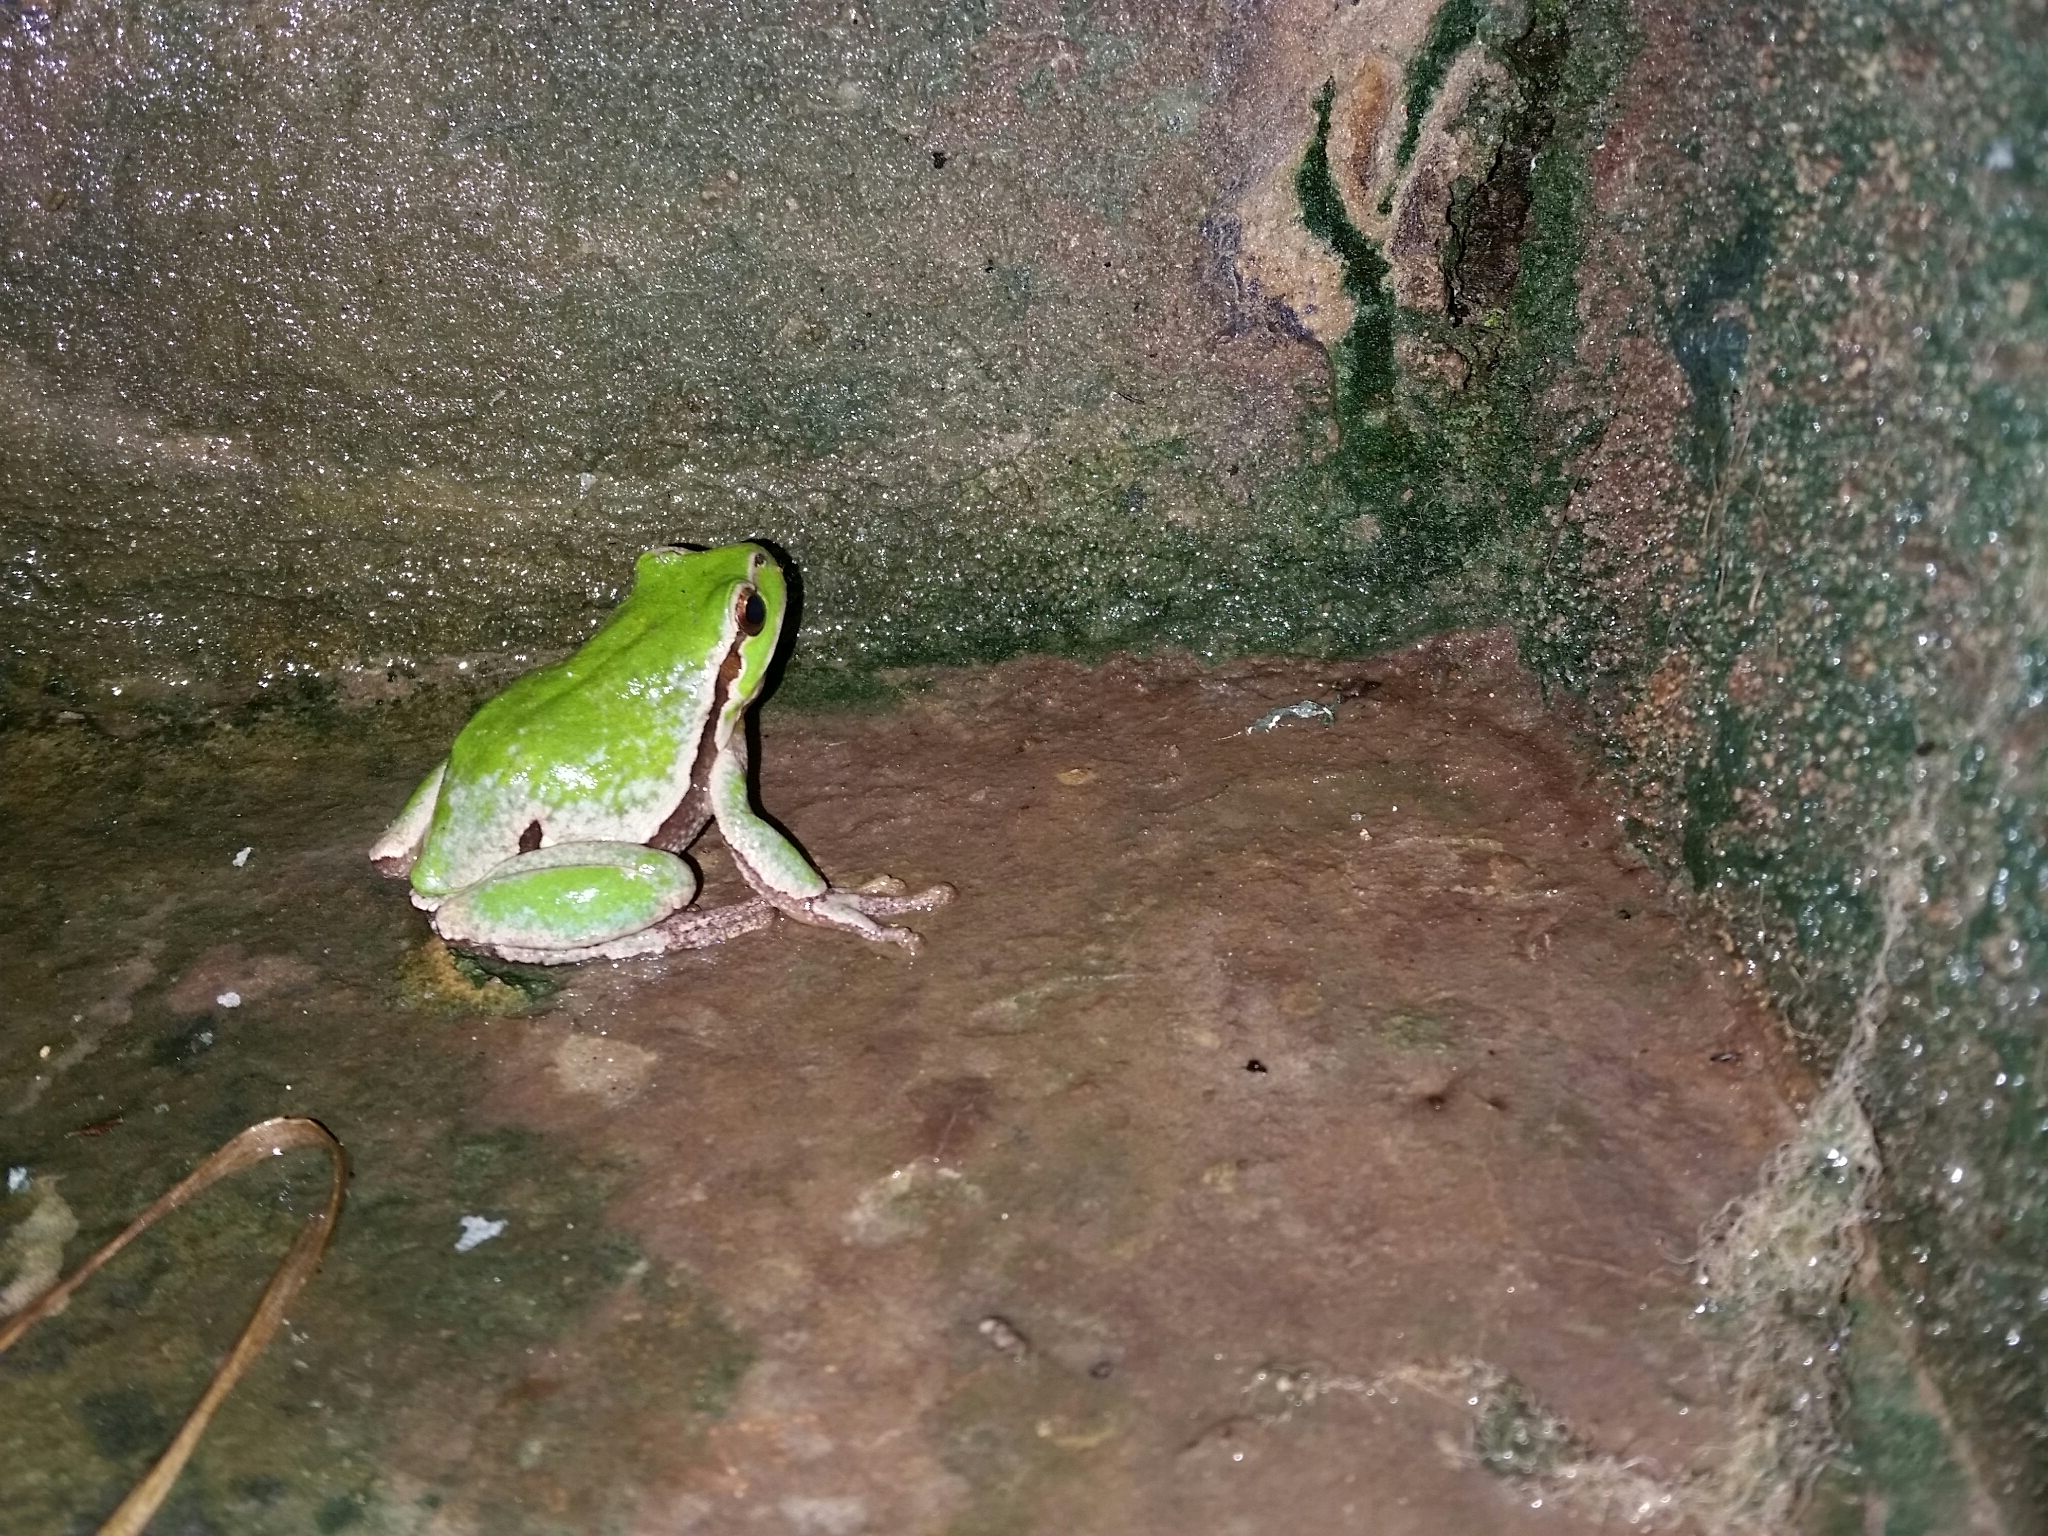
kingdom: Animalia
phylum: Chordata
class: Amphibia
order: Anura
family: Hylidae
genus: Hyla
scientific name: Hyla intermedia
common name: Italian tree frog
